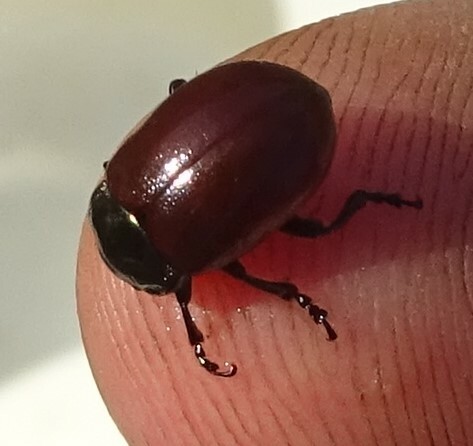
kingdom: Animalia
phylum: Arthropoda
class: Insecta
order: Coleoptera
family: Chrysomelidae
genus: Chrysomela
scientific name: Chrysomela polita
